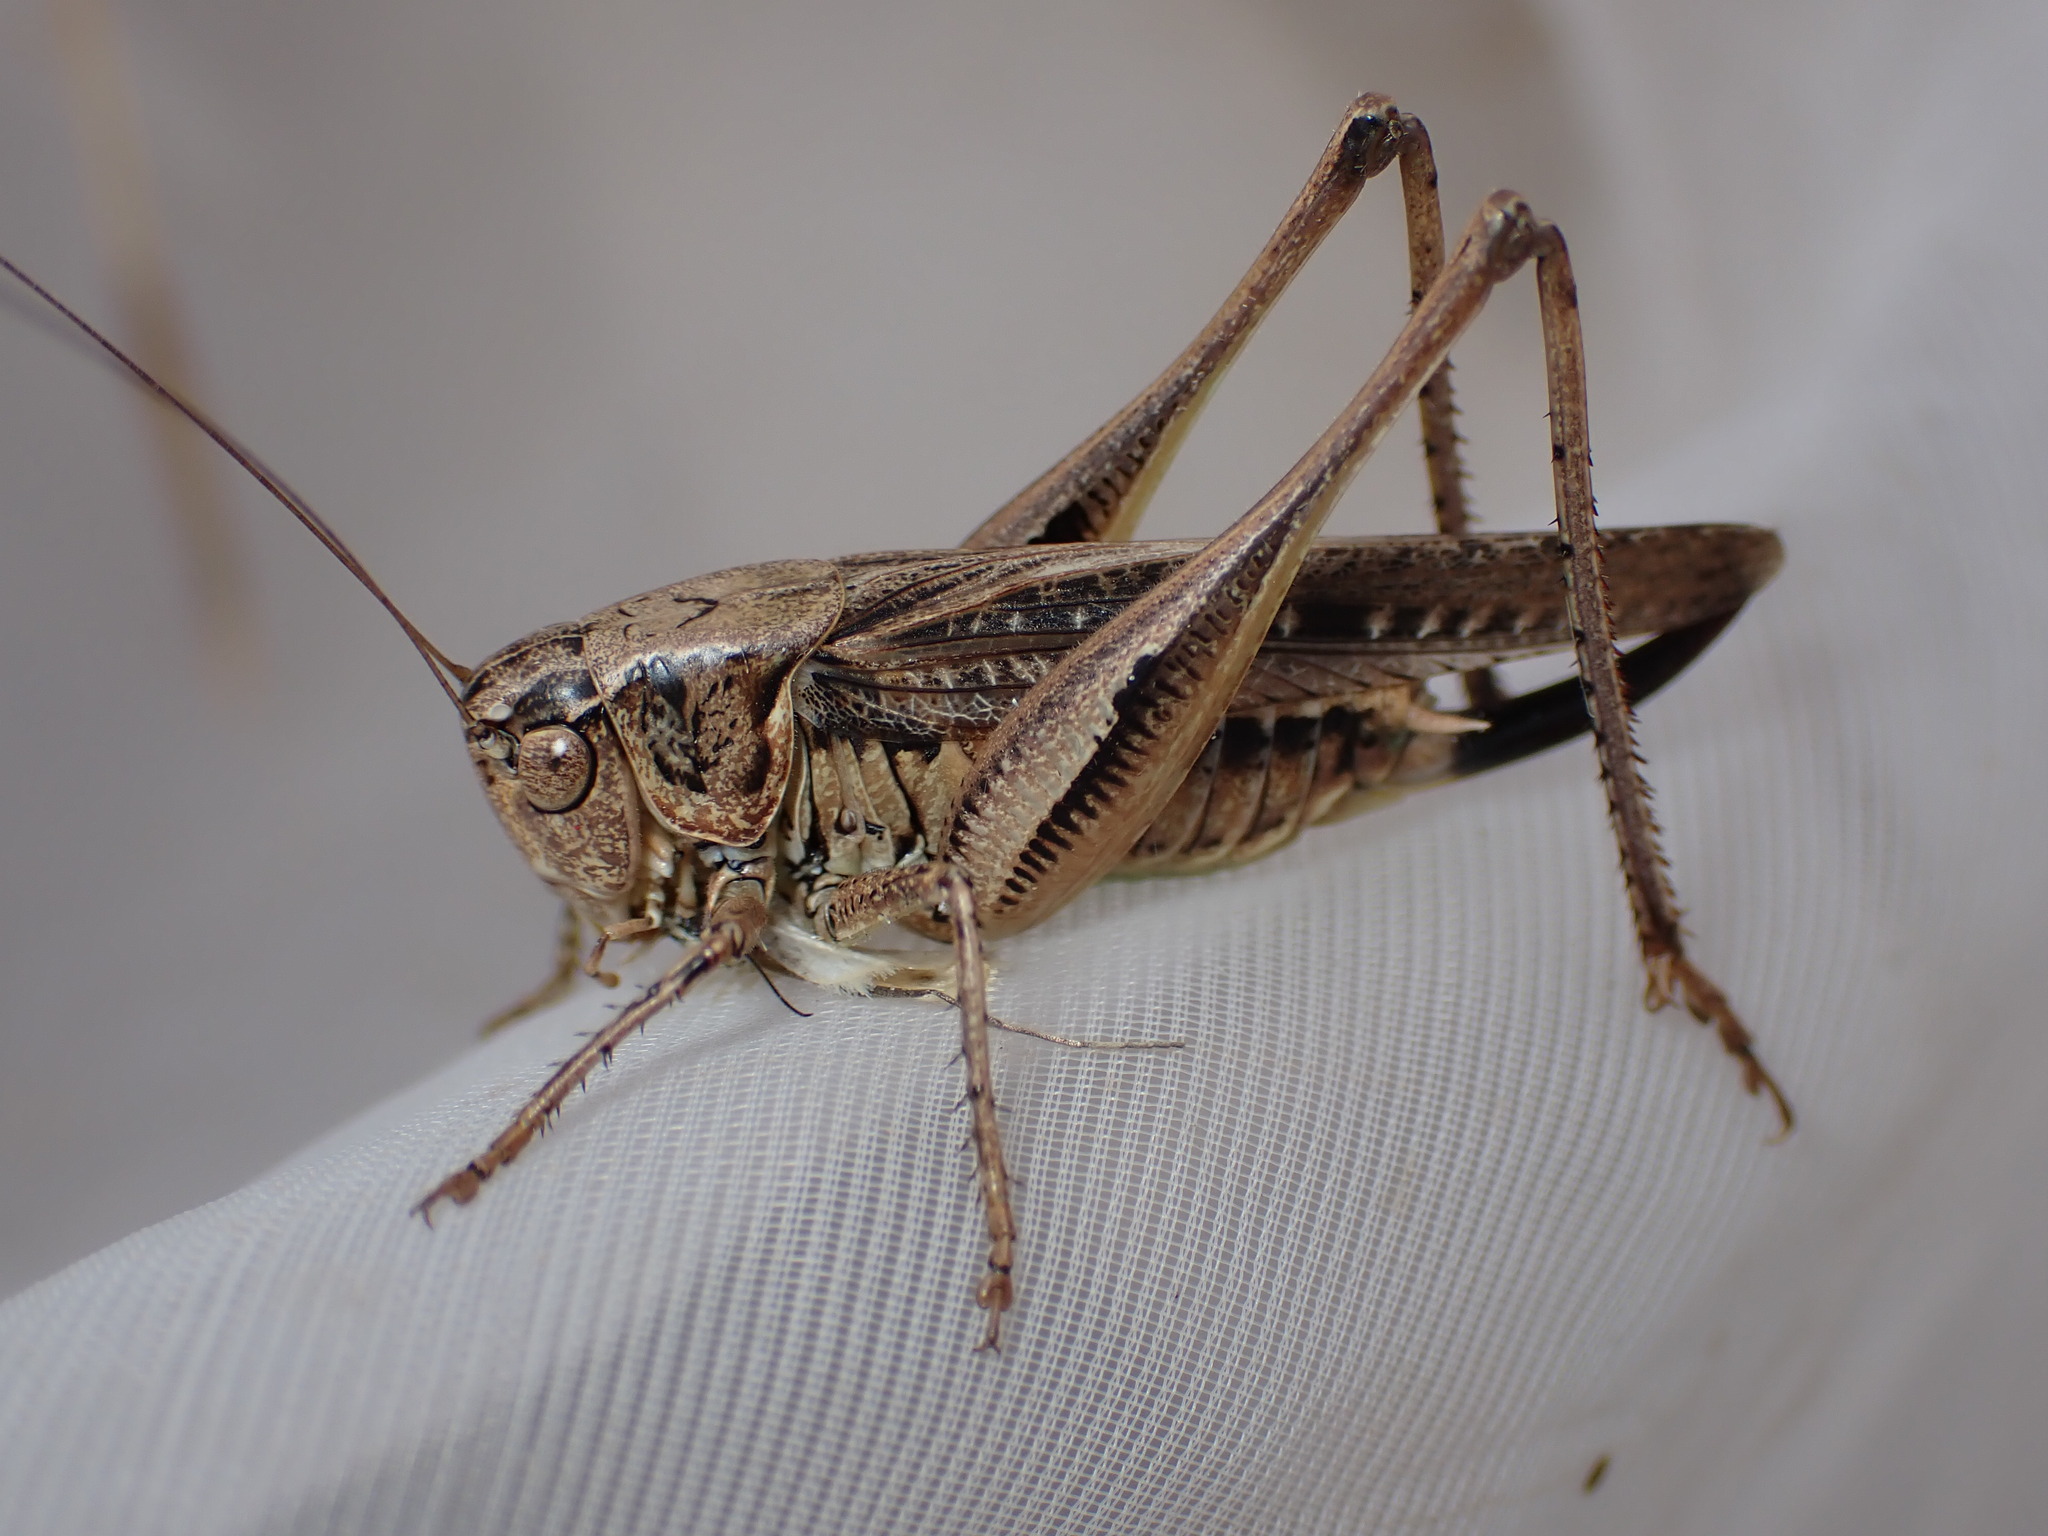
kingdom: Animalia
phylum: Arthropoda
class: Insecta
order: Orthoptera
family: Tettigoniidae
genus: Platycleis
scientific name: Platycleis albopunctata
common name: Grey bush-cricket
